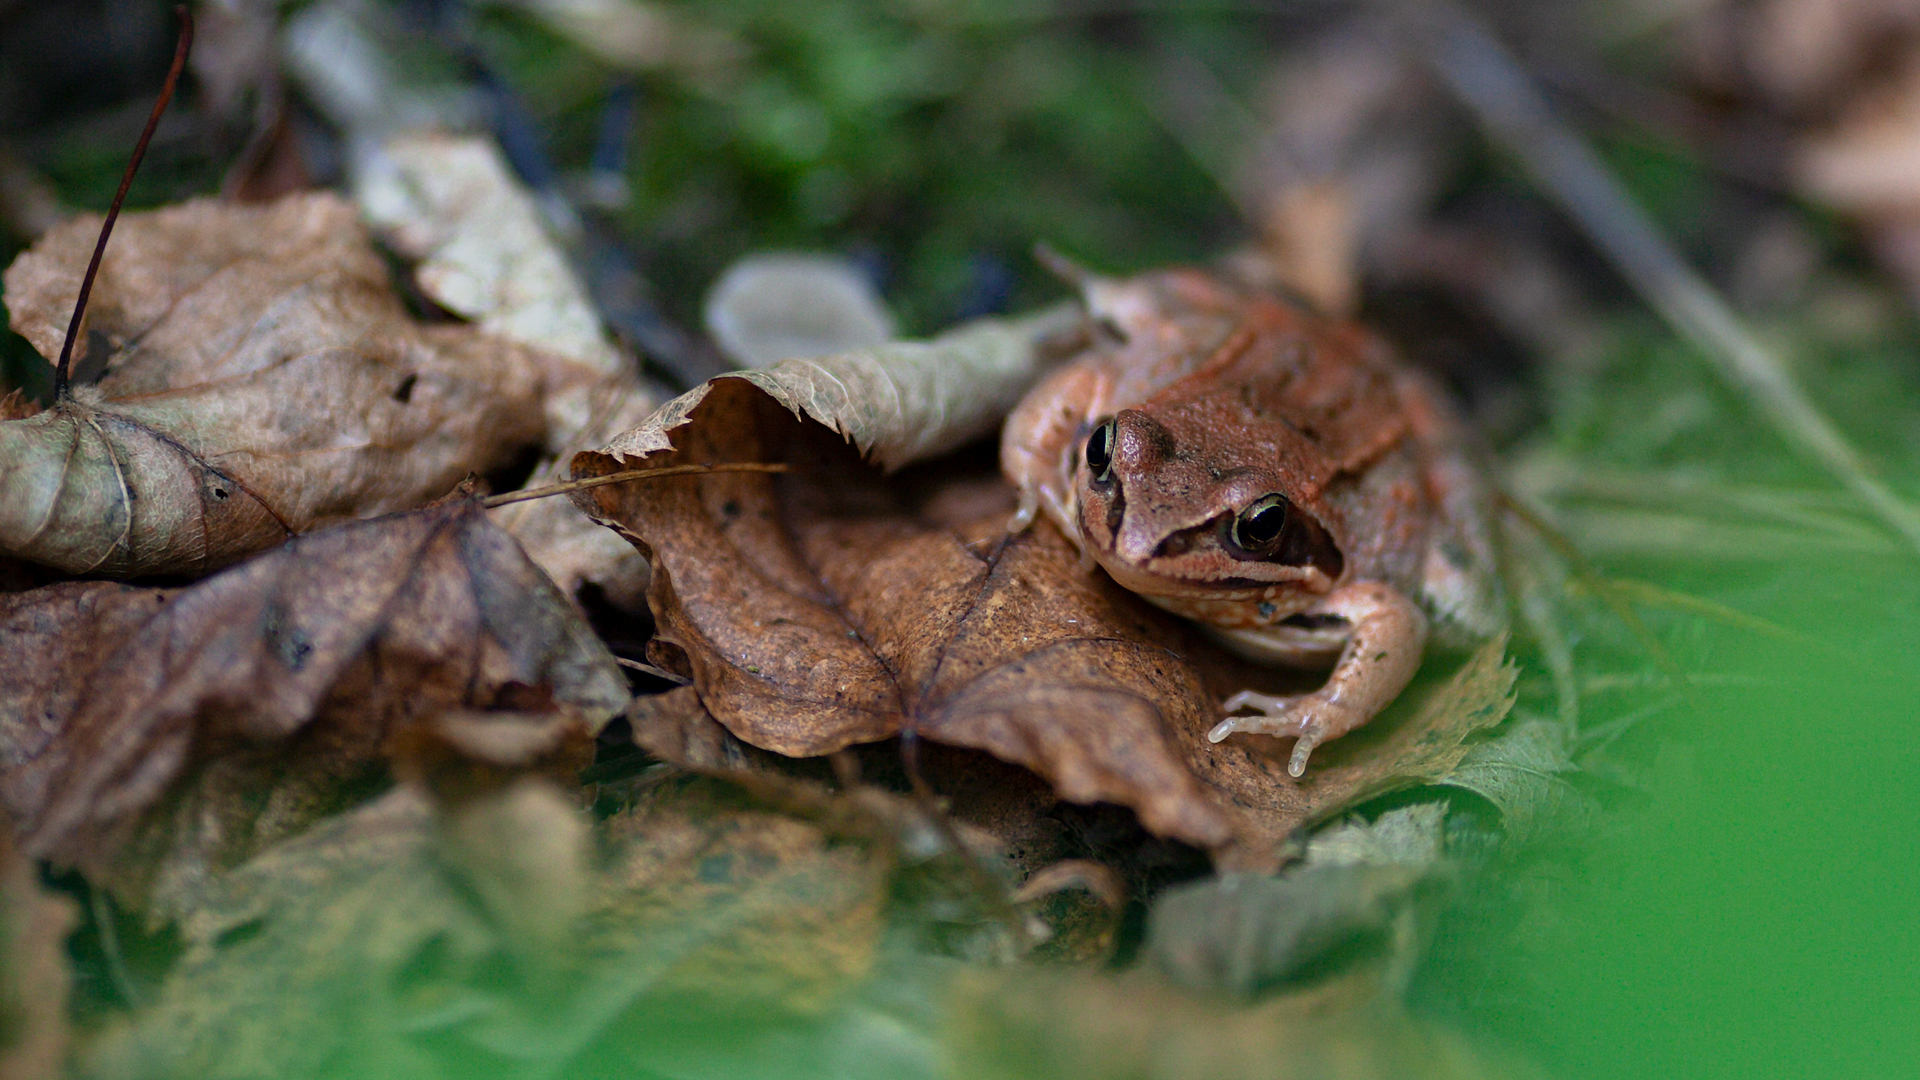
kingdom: Animalia
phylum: Chordata
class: Amphibia
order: Anura
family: Ranidae
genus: Rana
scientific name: Rana arvalis
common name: Moor frog
